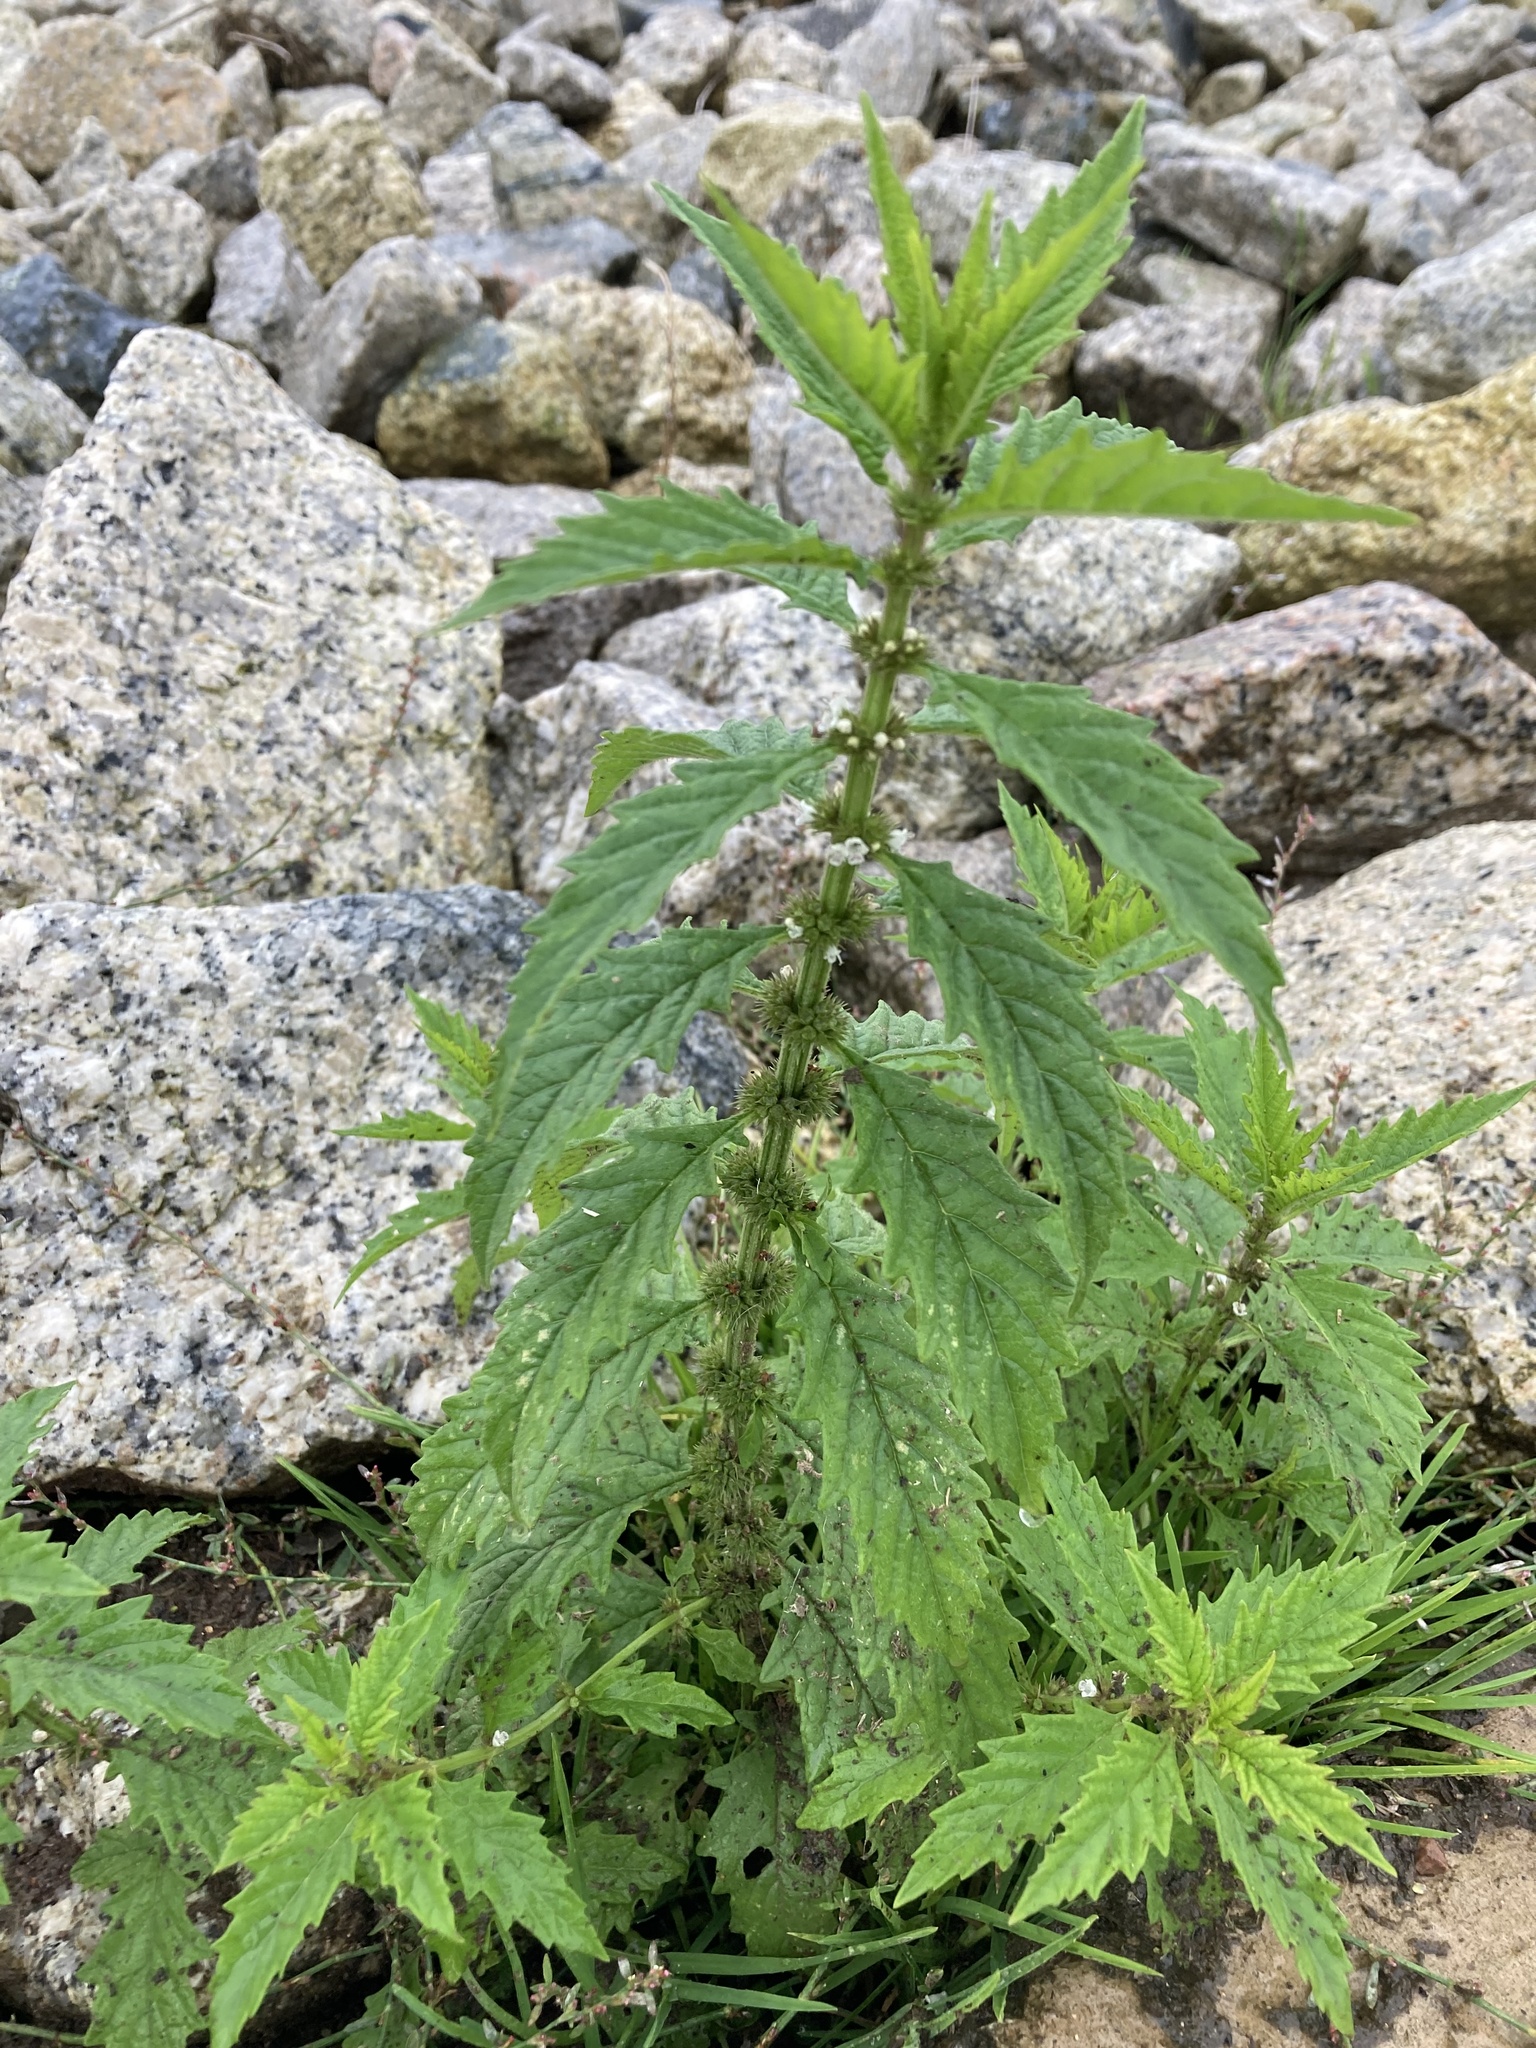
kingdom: Plantae
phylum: Tracheophyta
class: Magnoliopsida
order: Lamiales
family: Lamiaceae
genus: Lycopus
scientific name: Lycopus europaeus
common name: European bugleweed
